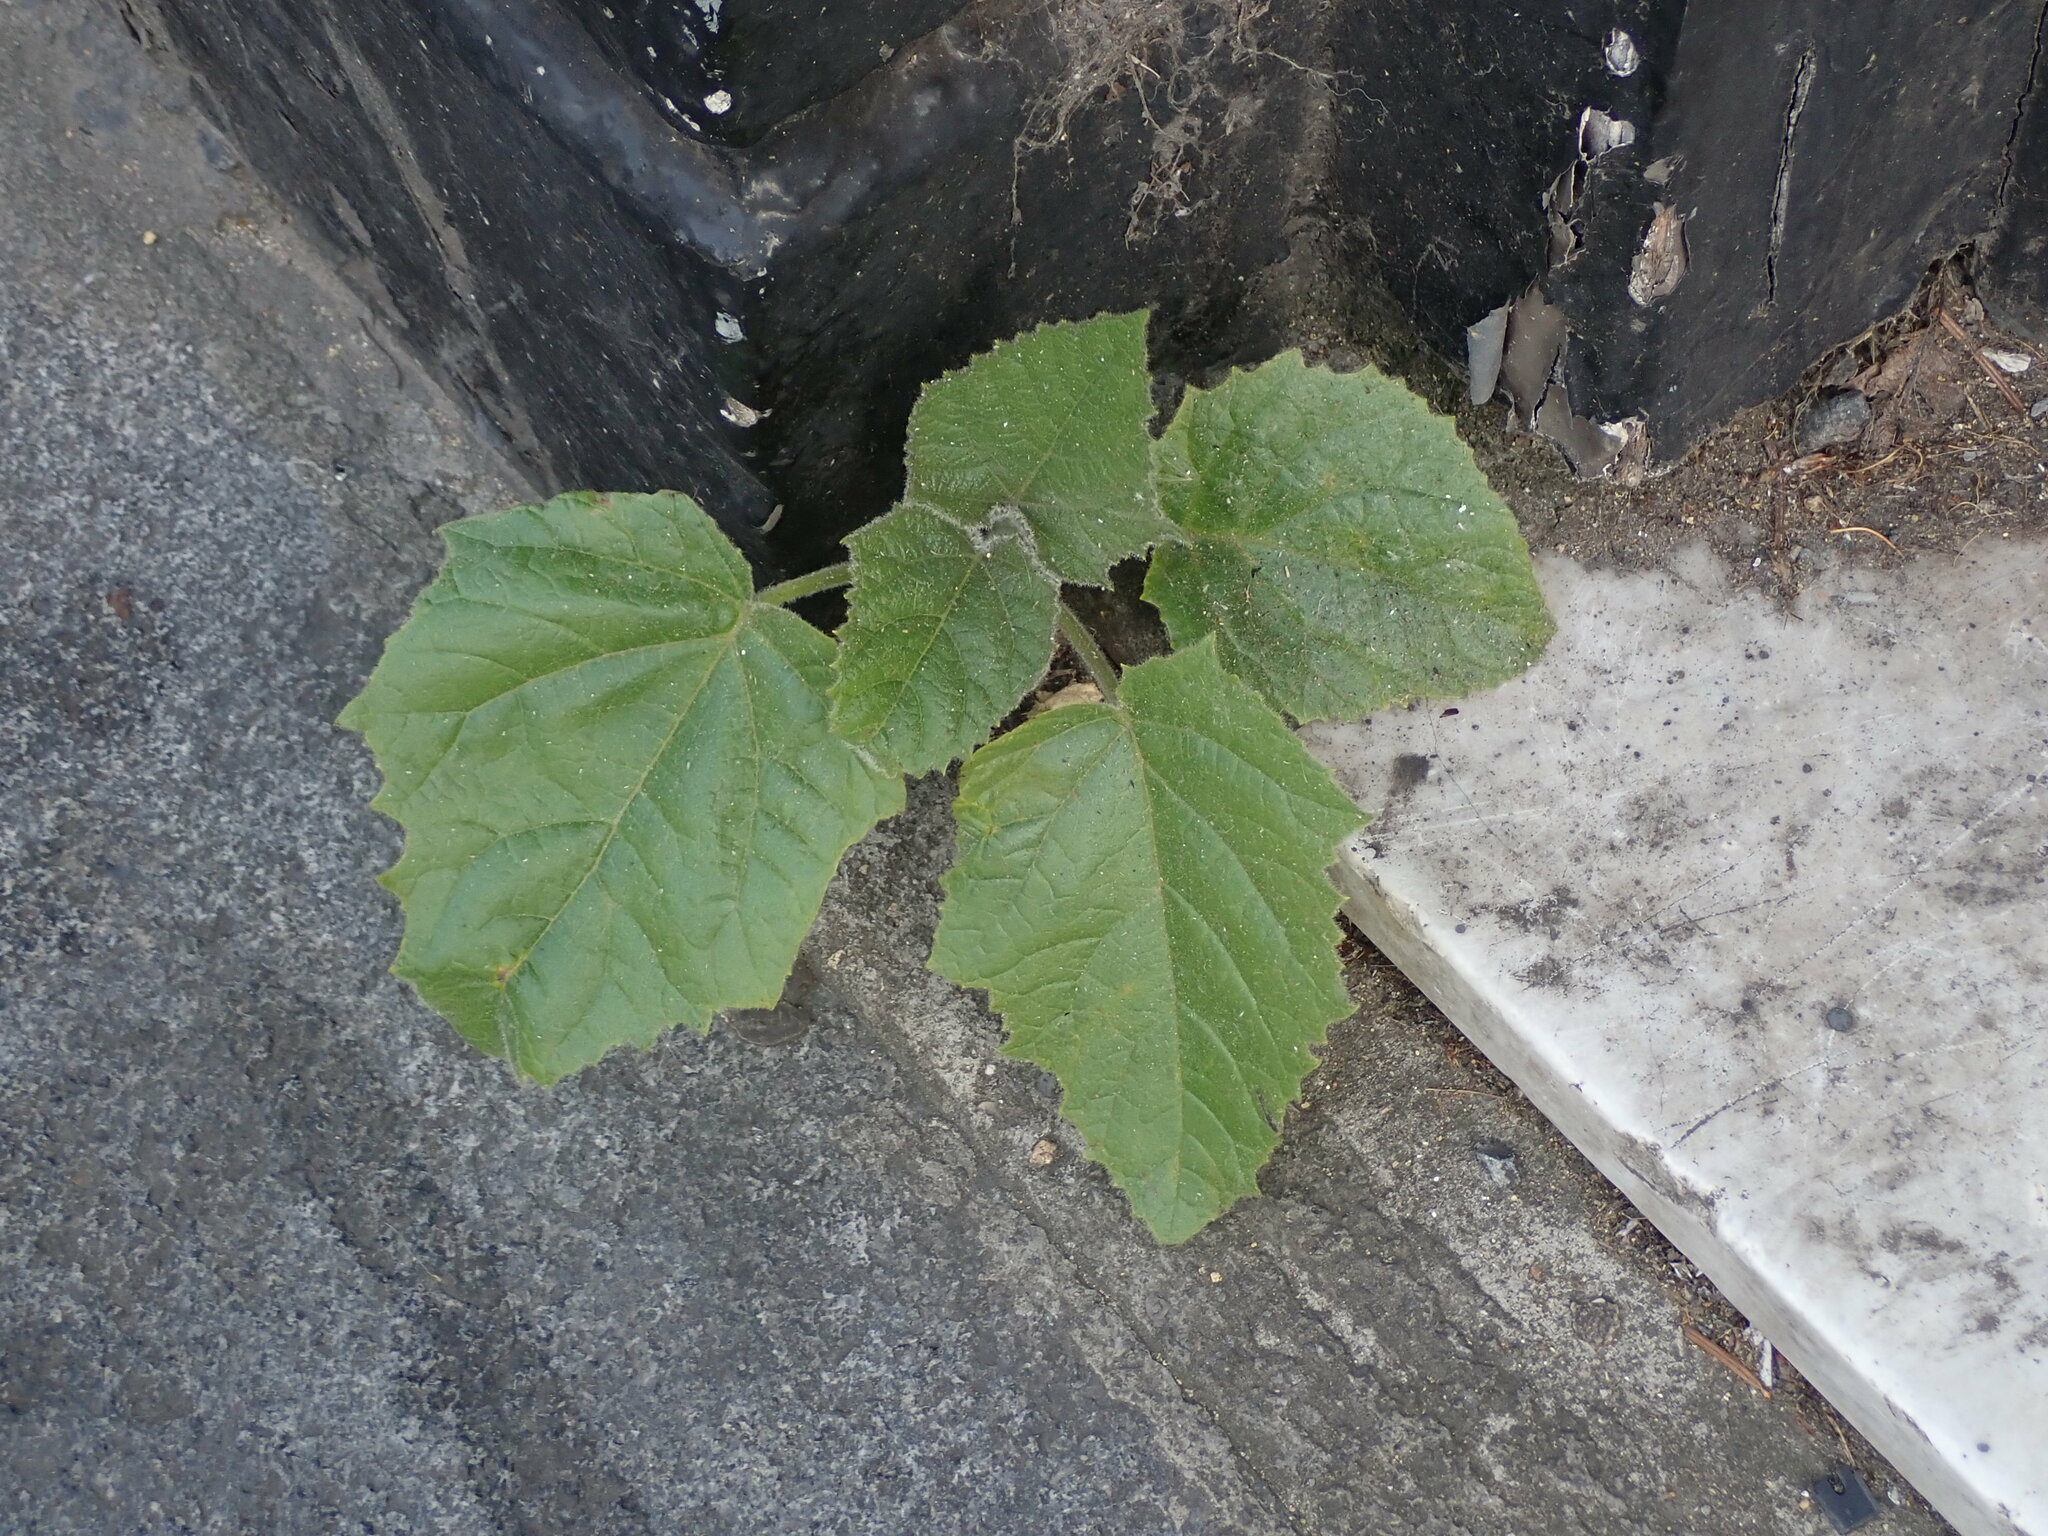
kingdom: Plantae
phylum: Tracheophyta
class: Magnoliopsida
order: Lamiales
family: Paulowniaceae
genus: Paulownia
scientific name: Paulownia tomentosa
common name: Foxglove-tree
